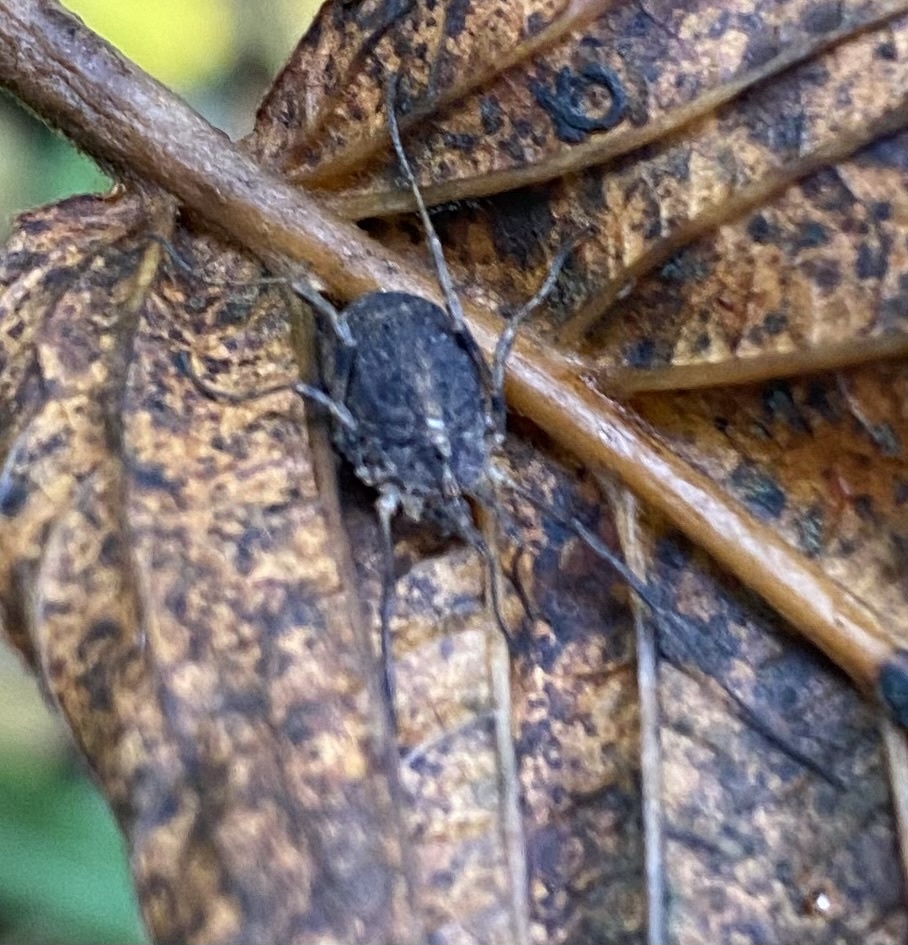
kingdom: Animalia
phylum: Arthropoda
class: Arachnida
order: Opiliones
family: Phalangiidae
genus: Odiellus
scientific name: Odiellus lendlii
